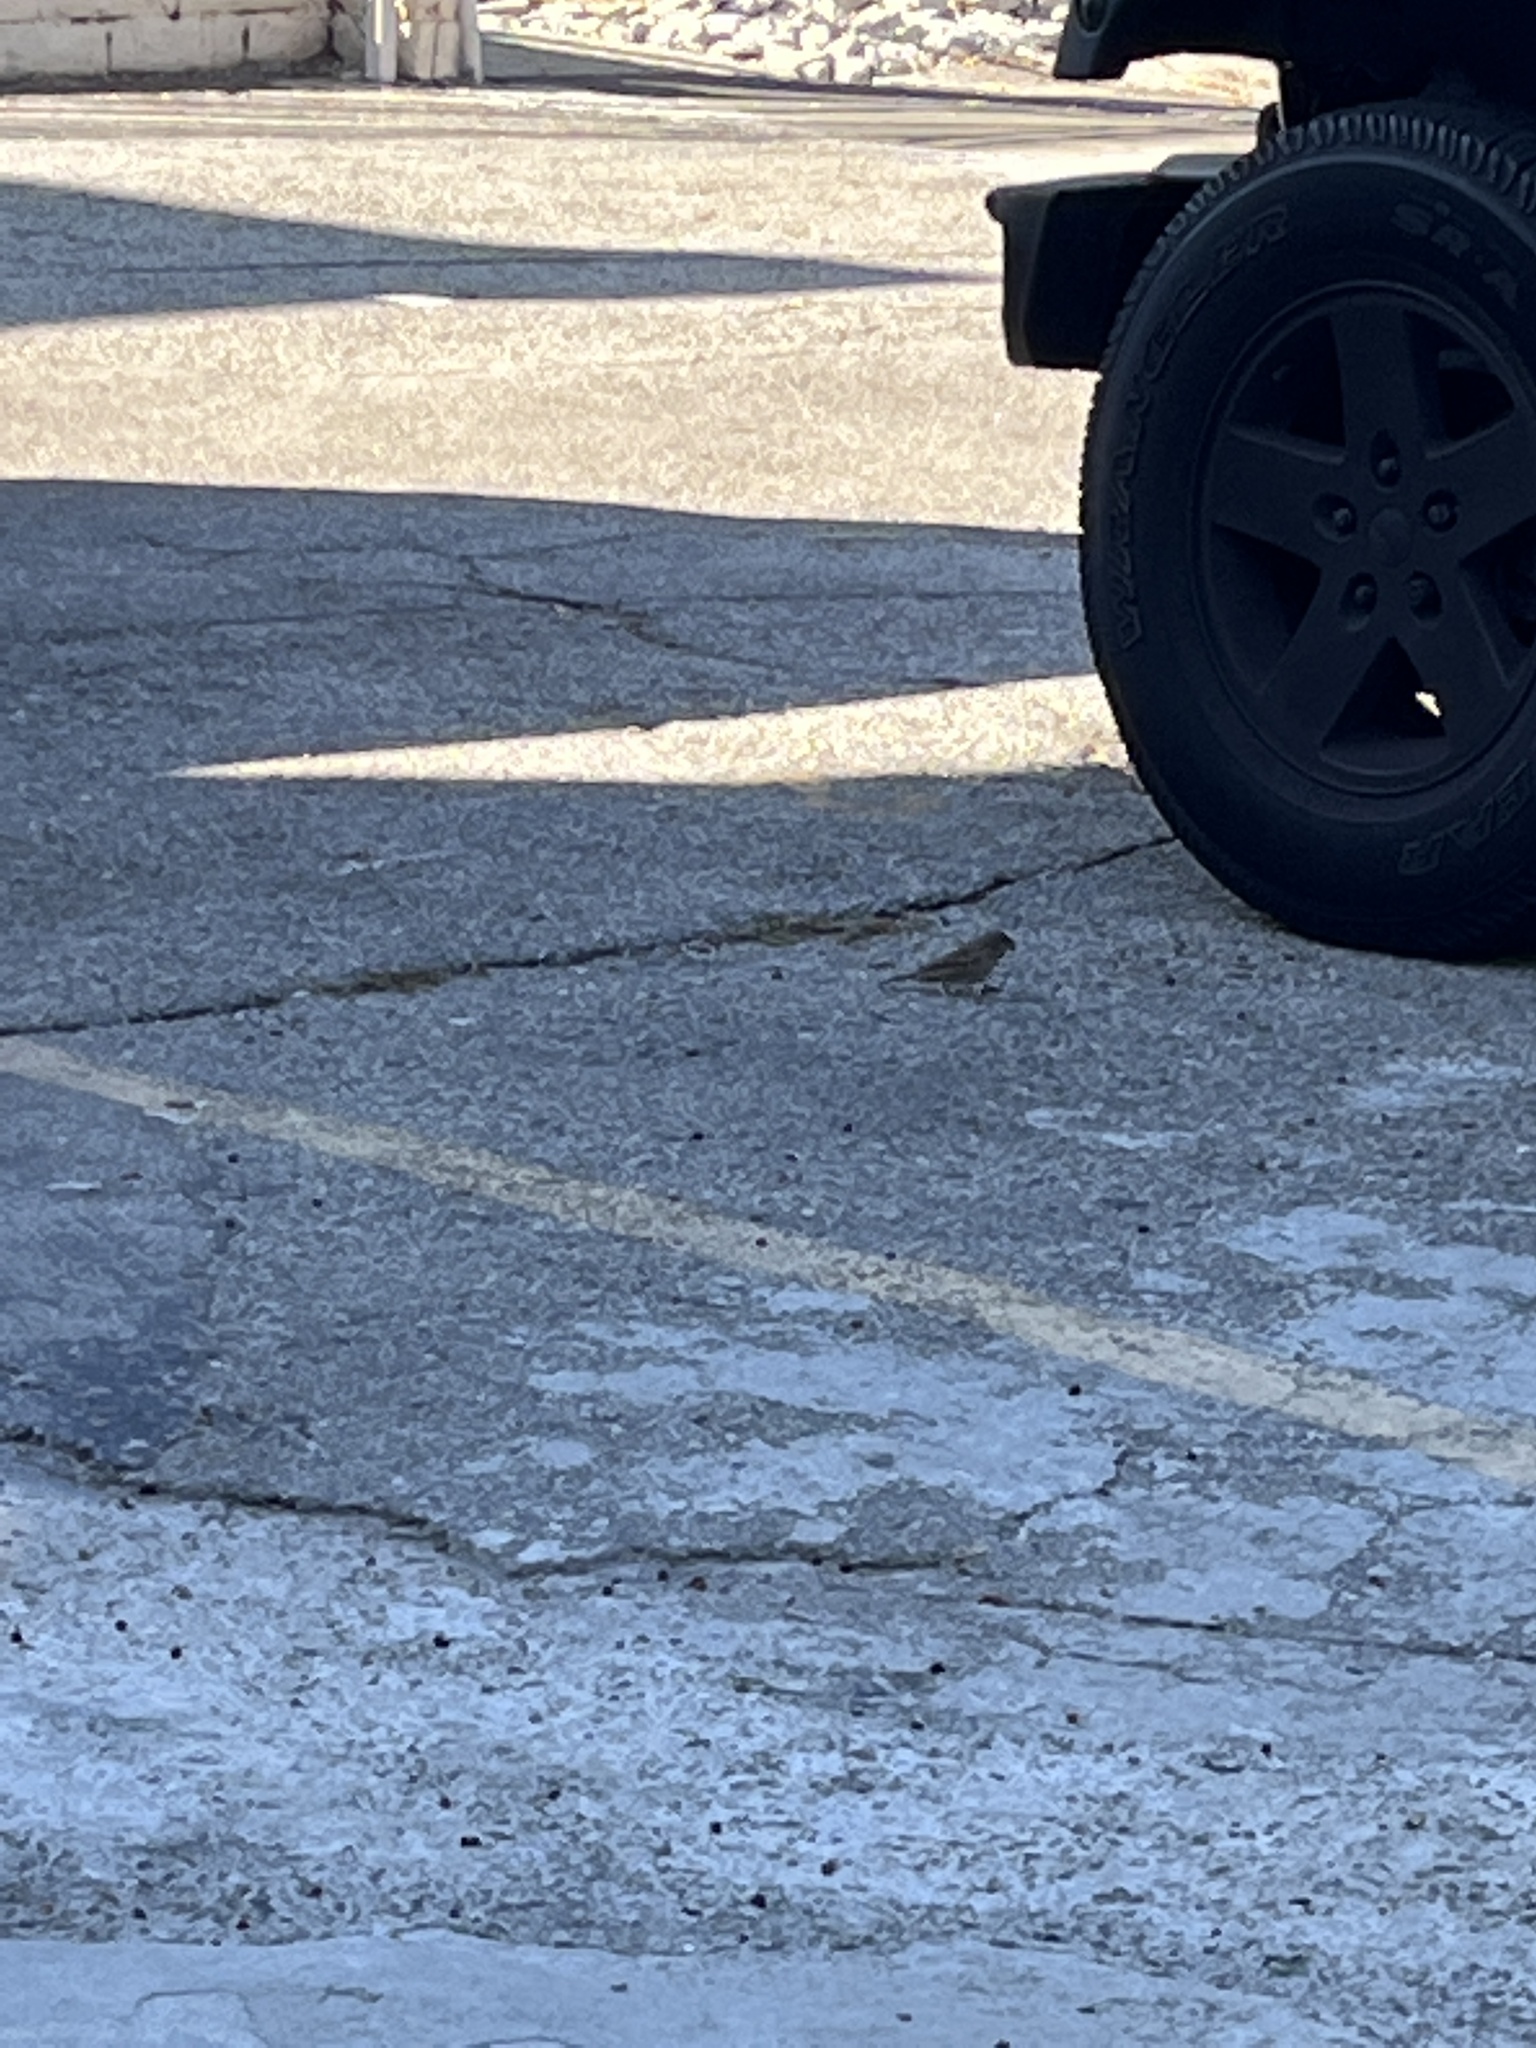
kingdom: Animalia
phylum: Chordata
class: Aves
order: Passeriformes
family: Passeridae
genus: Passer
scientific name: Passer domesticus
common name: House sparrow
